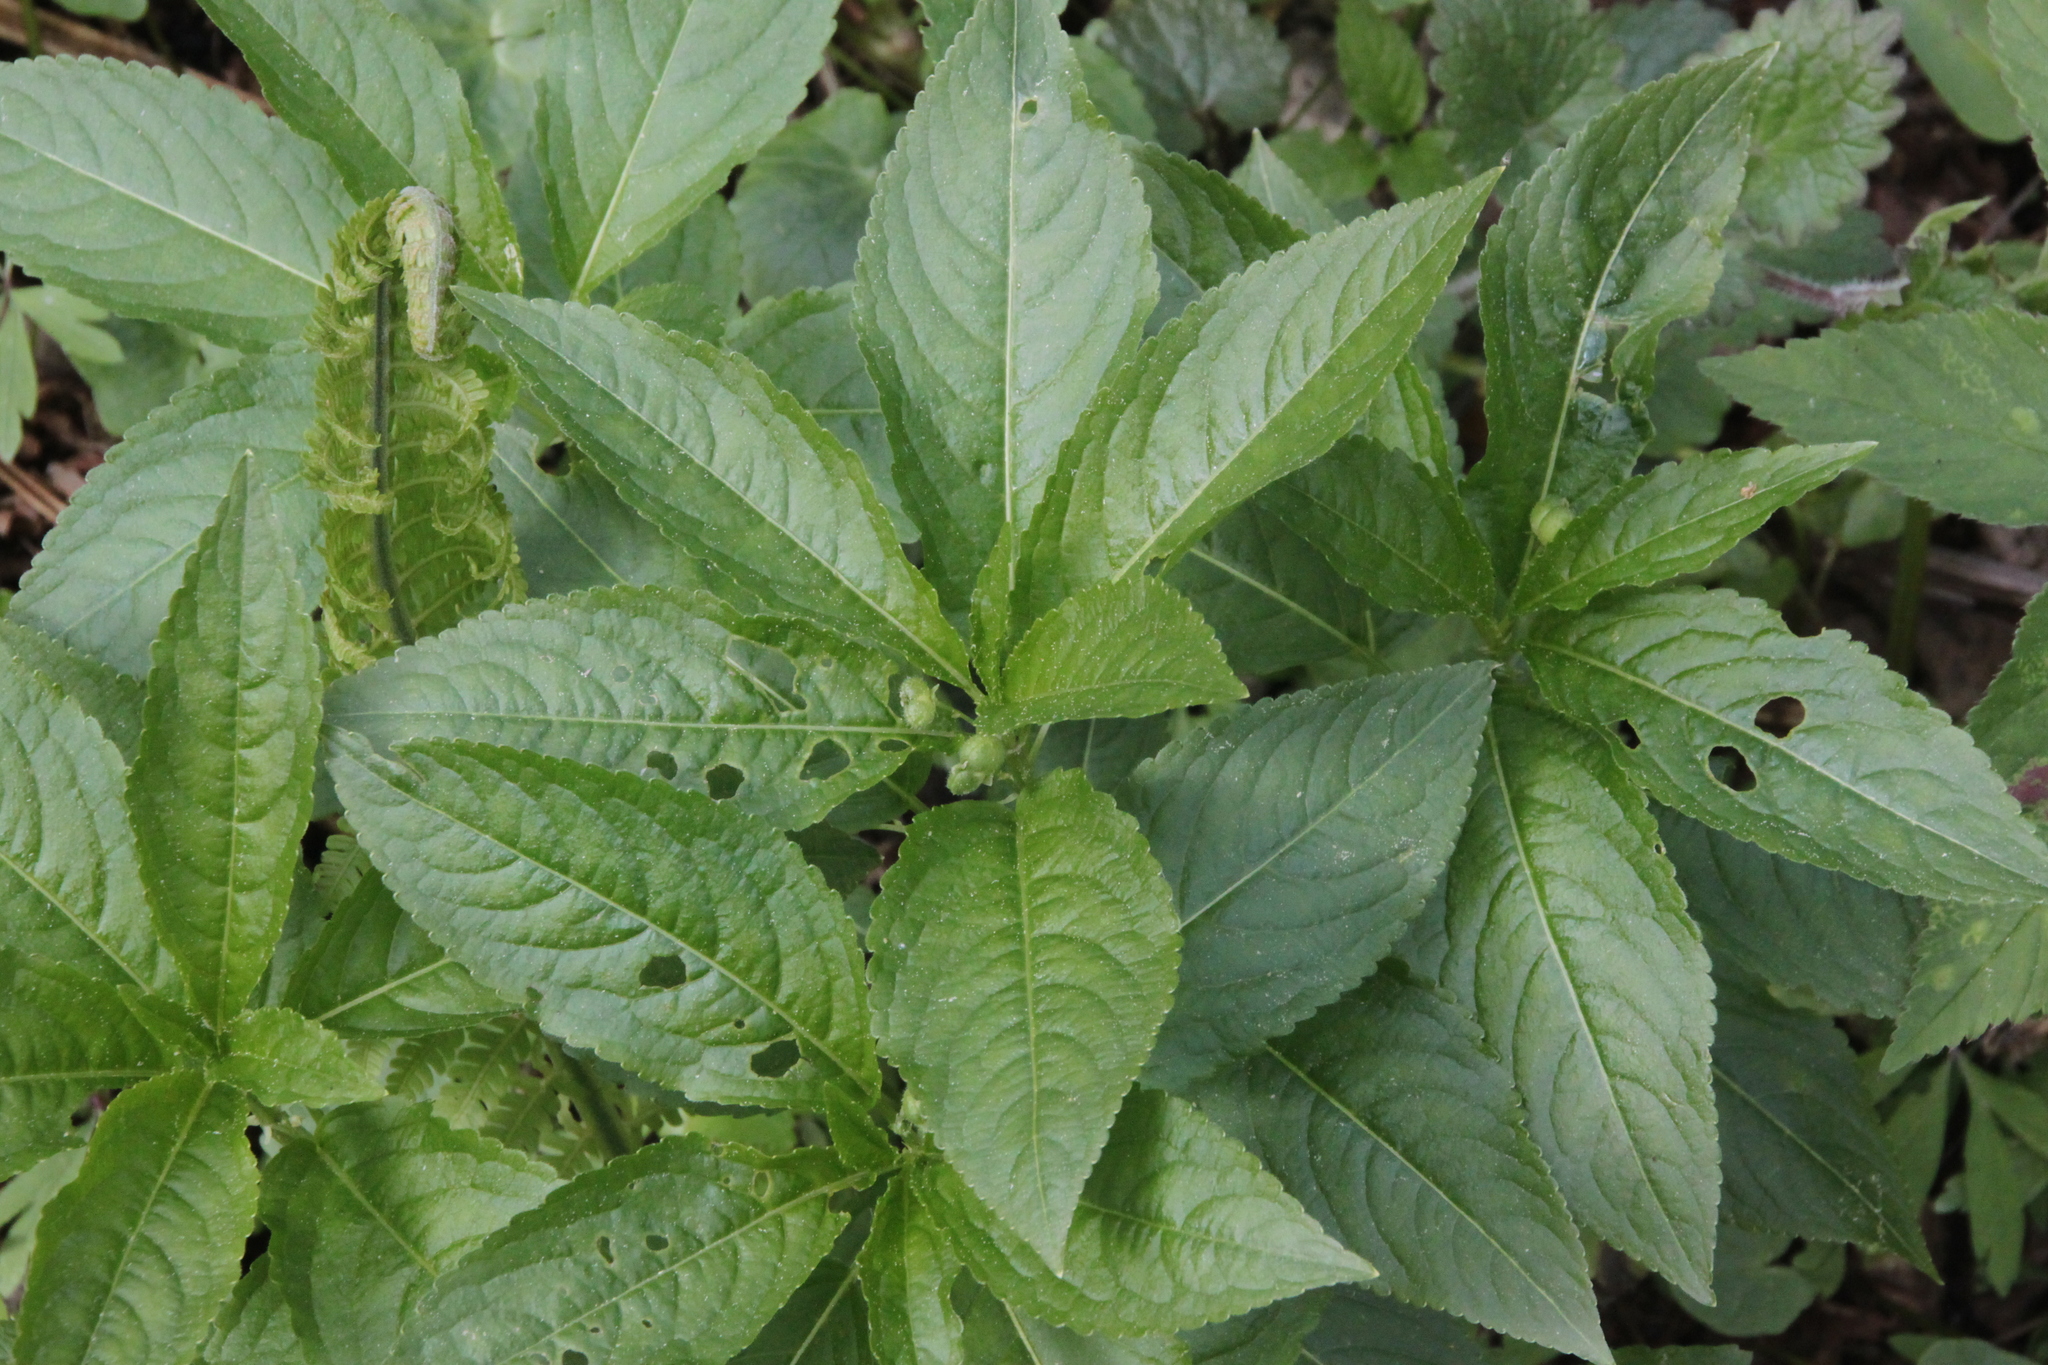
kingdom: Plantae
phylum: Tracheophyta
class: Magnoliopsida
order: Malpighiales
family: Euphorbiaceae
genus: Mercurialis
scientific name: Mercurialis perennis
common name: Dog mercury
